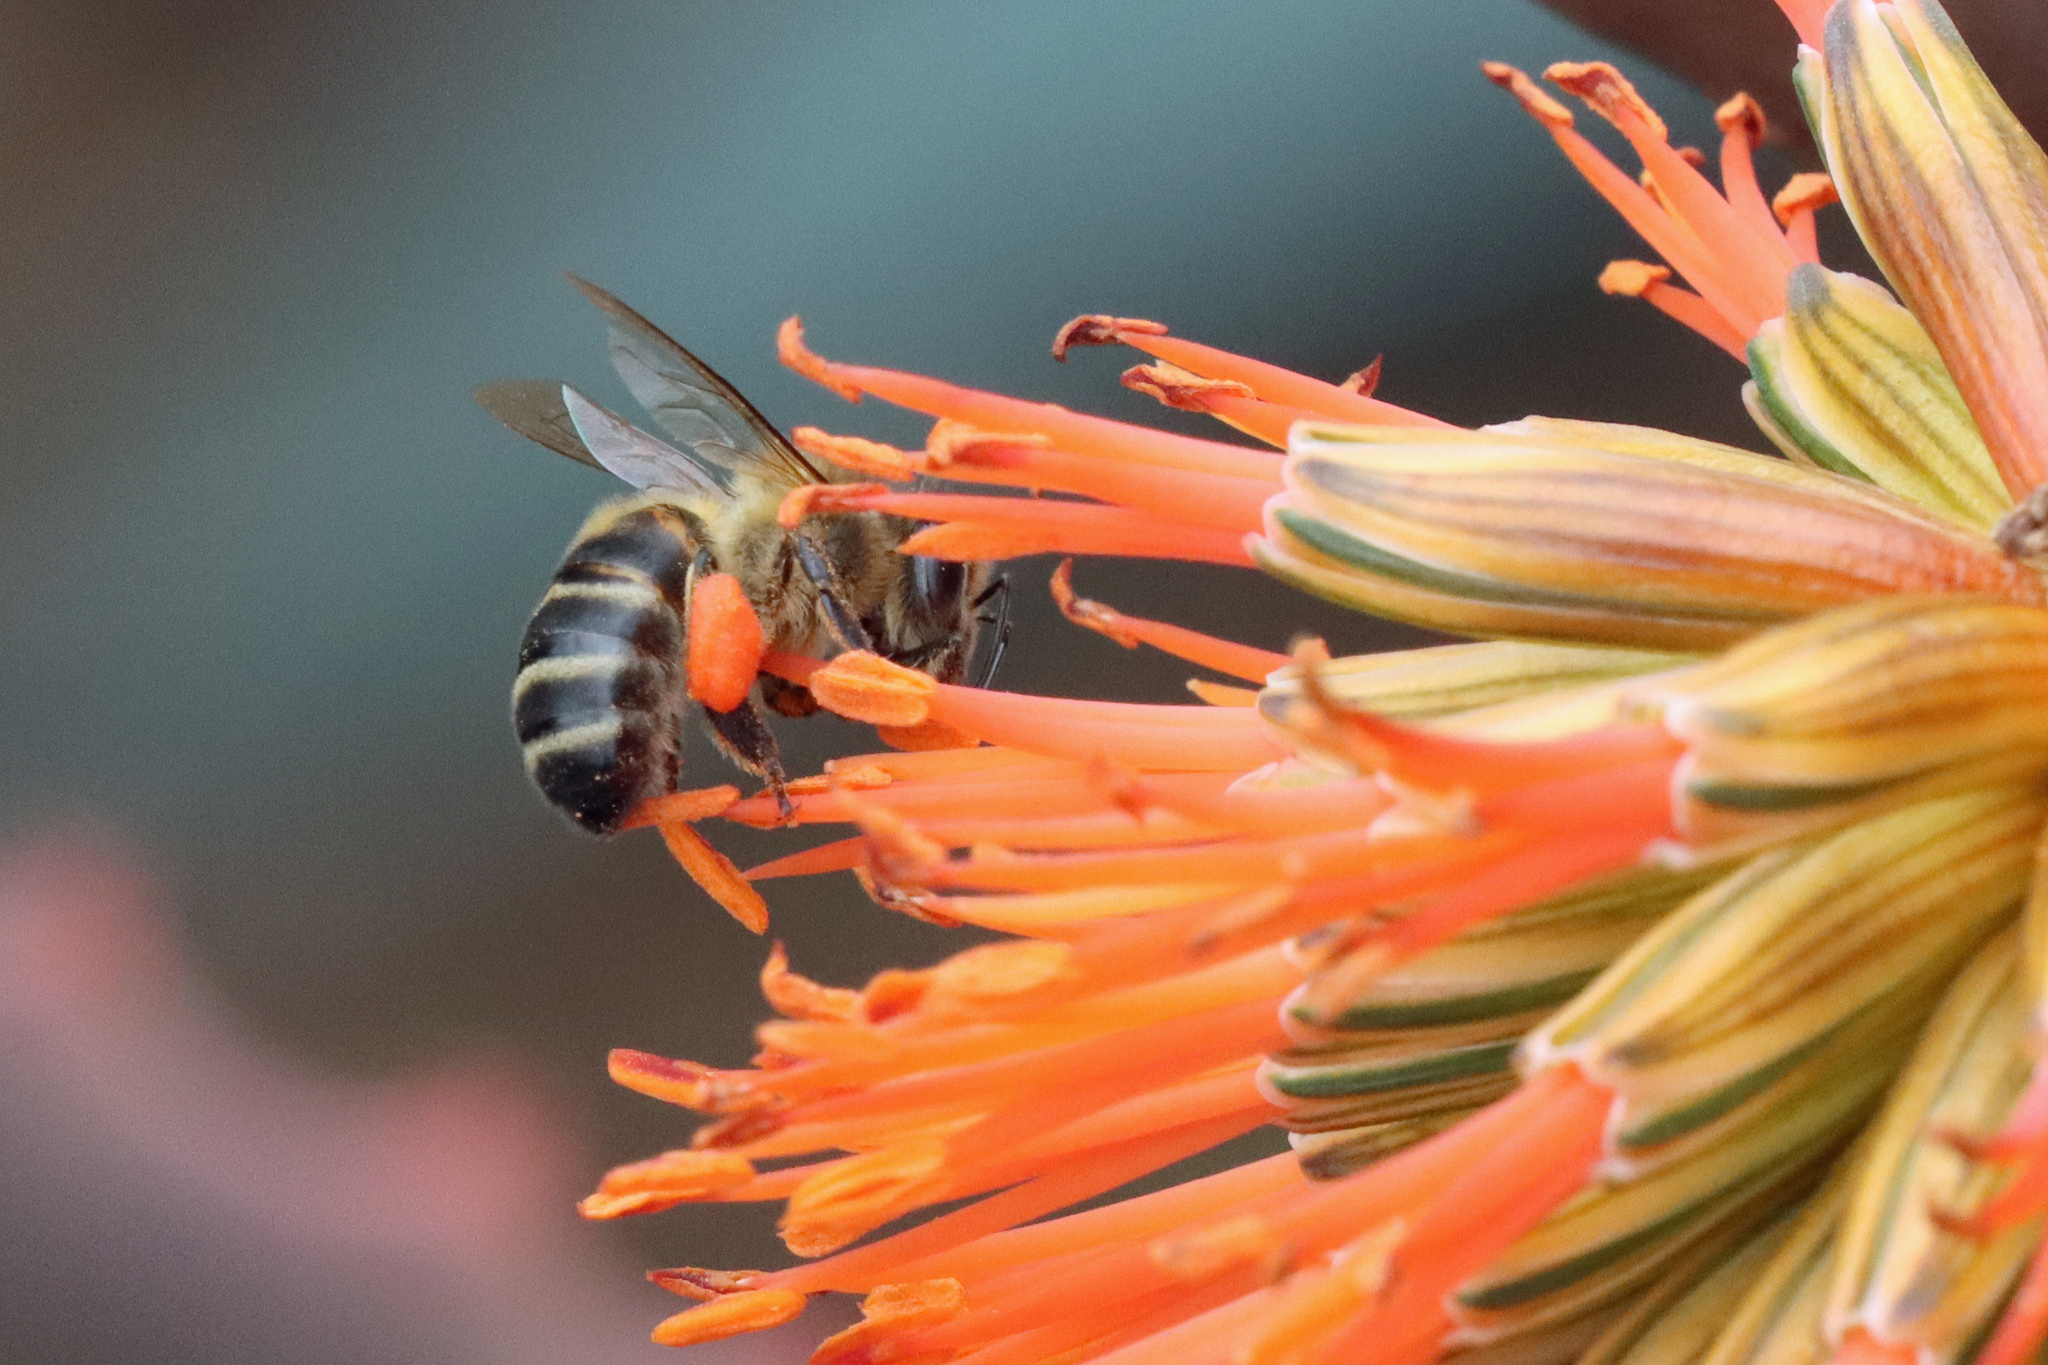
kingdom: Animalia
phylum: Arthropoda
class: Insecta
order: Hymenoptera
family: Apidae
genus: Apis
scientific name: Apis mellifera
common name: Honey bee
